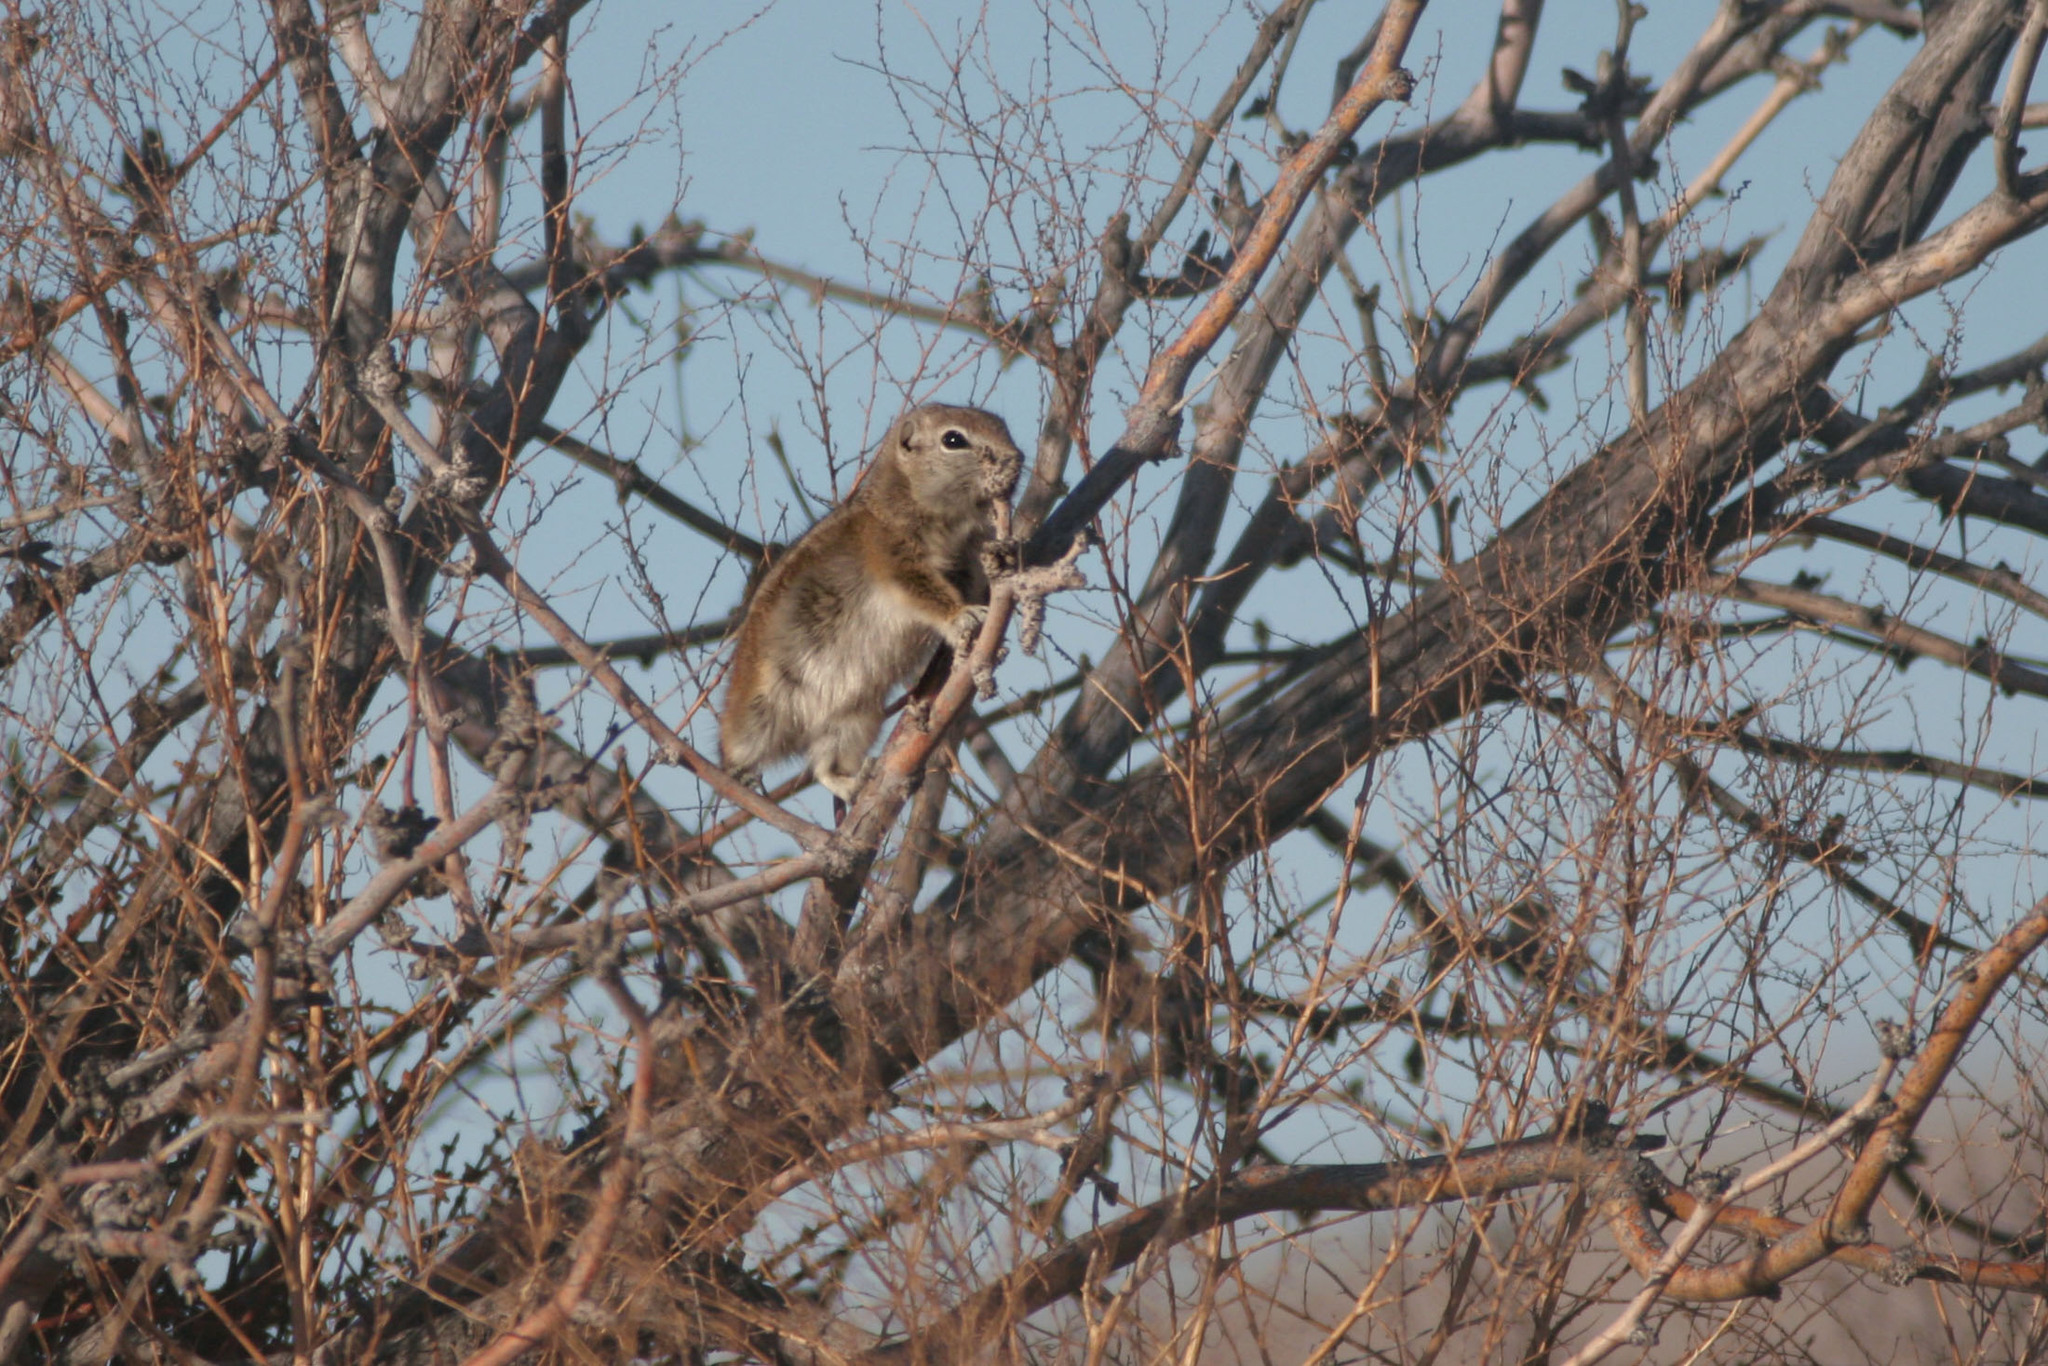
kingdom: Animalia
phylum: Chordata
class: Mammalia
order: Rodentia
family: Sciuridae
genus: Ammospermophilus
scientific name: Ammospermophilus leucurus
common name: White-tailed antelope squirrel
